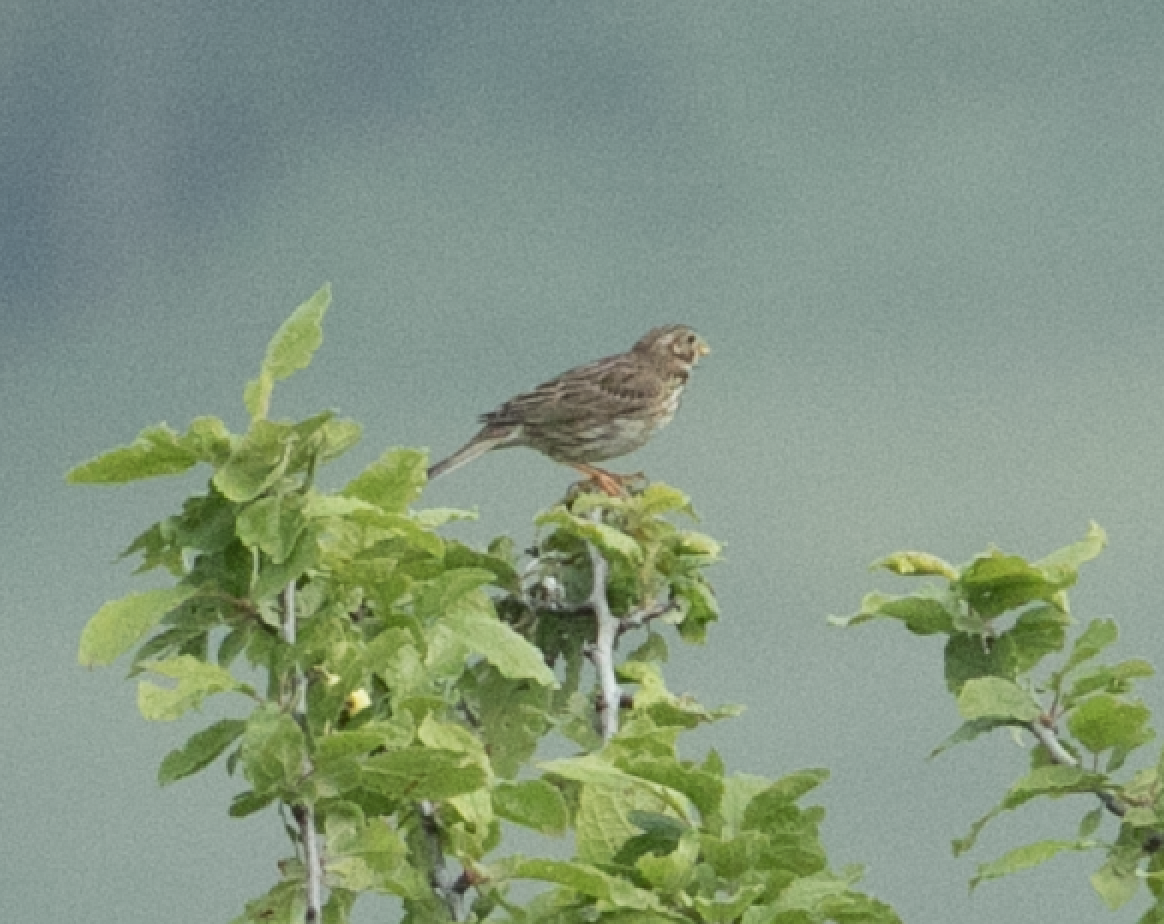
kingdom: Animalia
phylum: Chordata
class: Aves
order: Passeriformes
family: Emberizidae
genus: Emberiza
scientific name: Emberiza calandra
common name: Corn bunting
